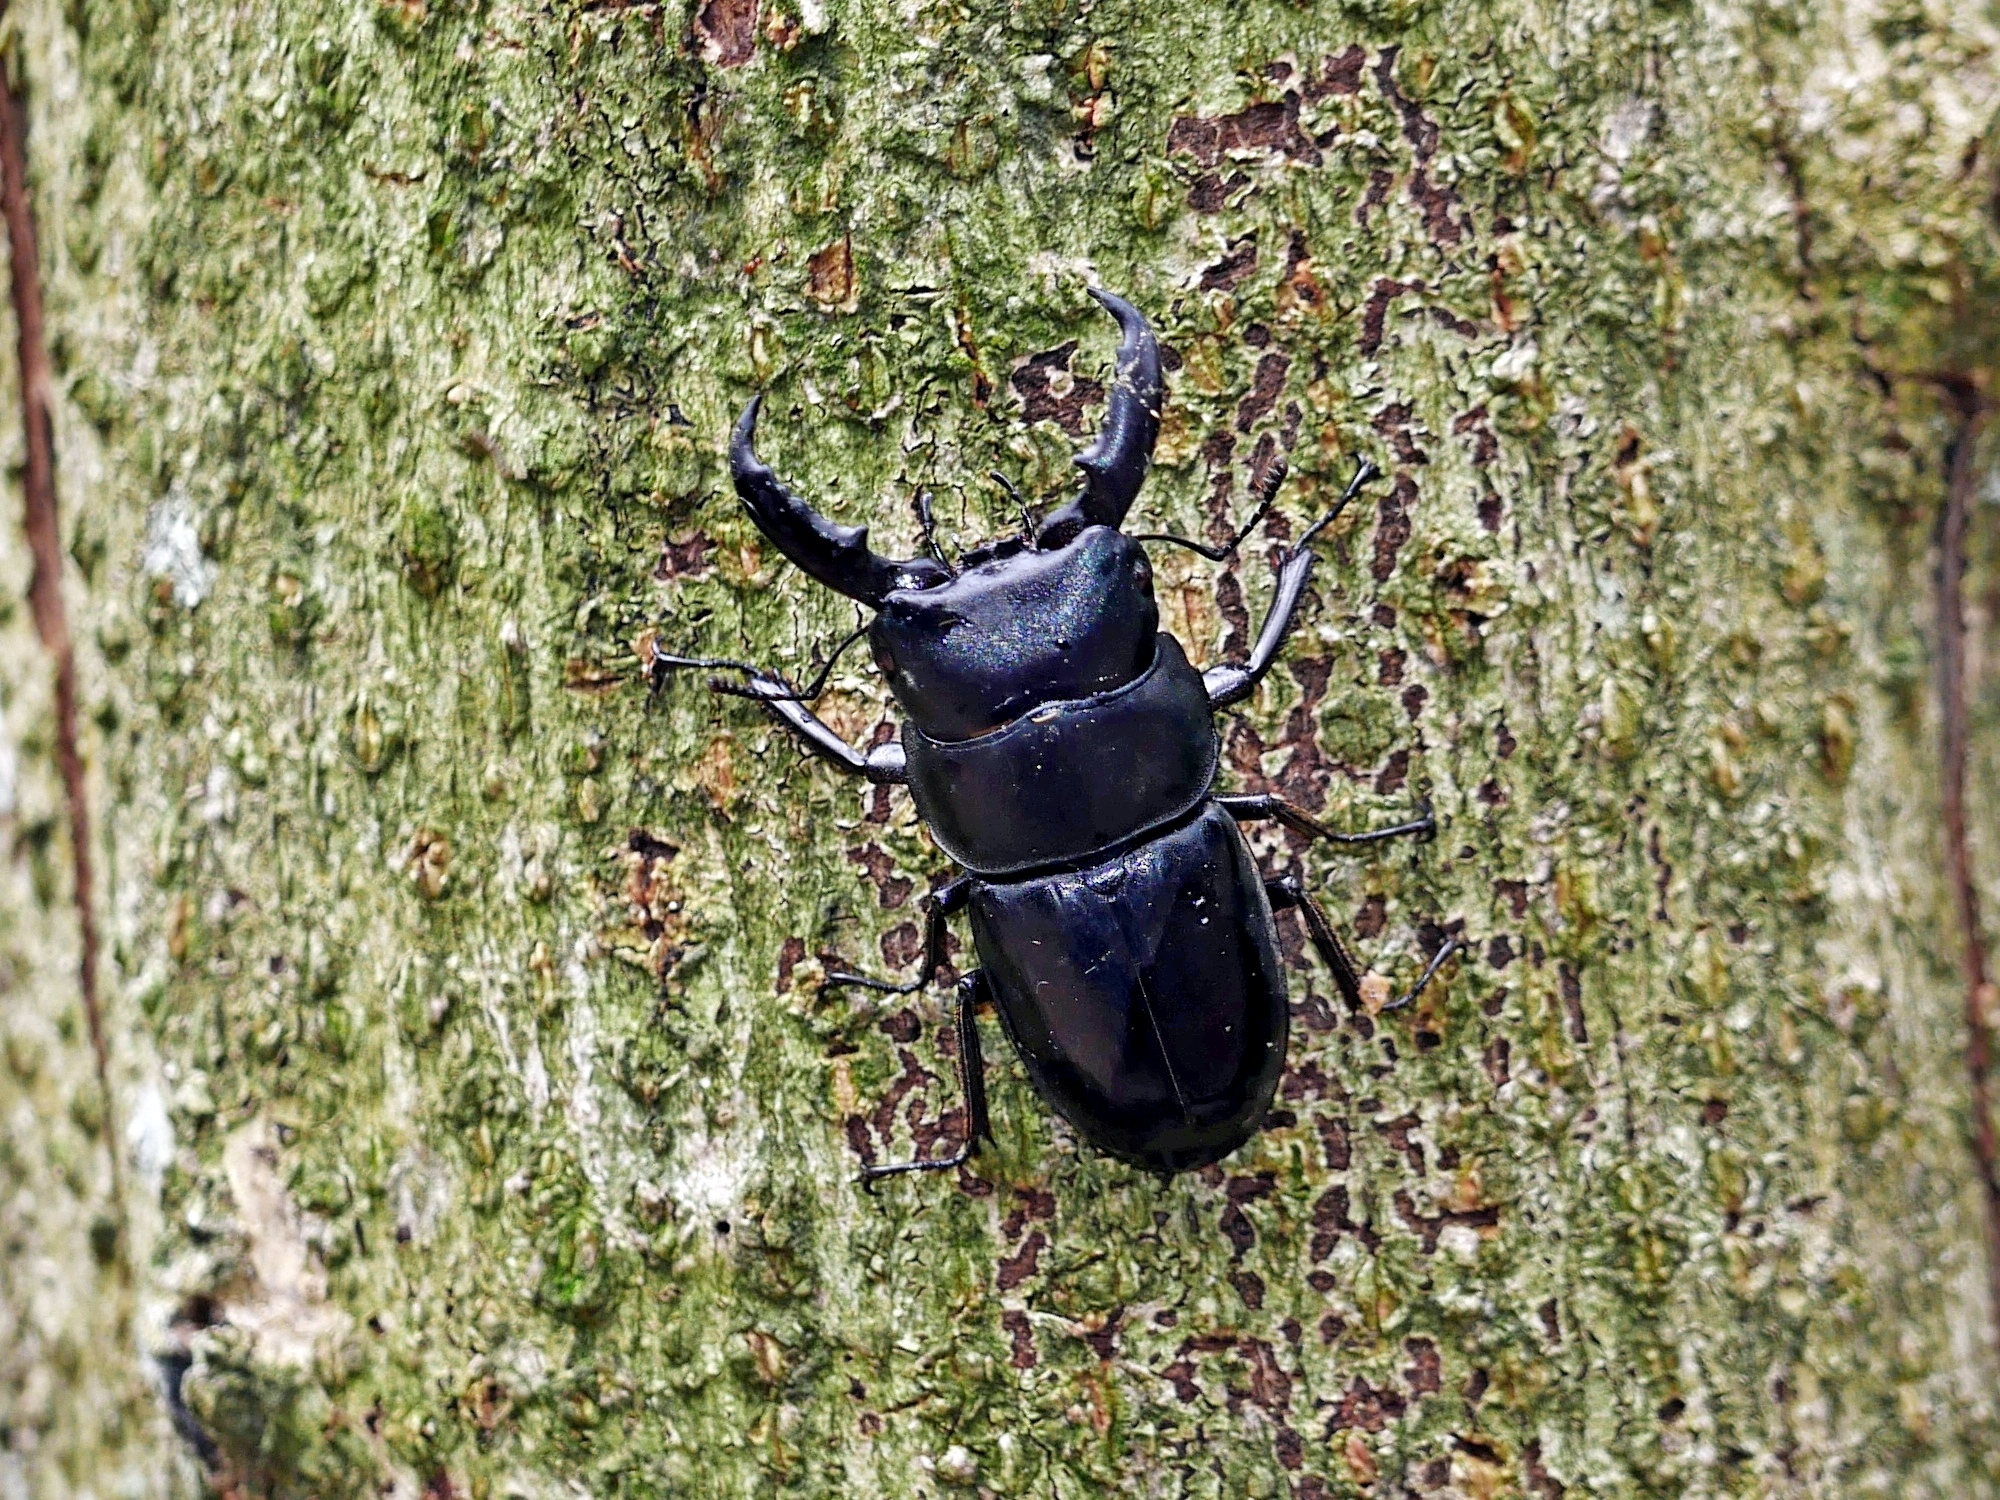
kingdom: Animalia
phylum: Arthropoda
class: Insecta
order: Coleoptera
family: Lucanidae
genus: Serrognathus
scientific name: Serrognathus kyanrauensis
